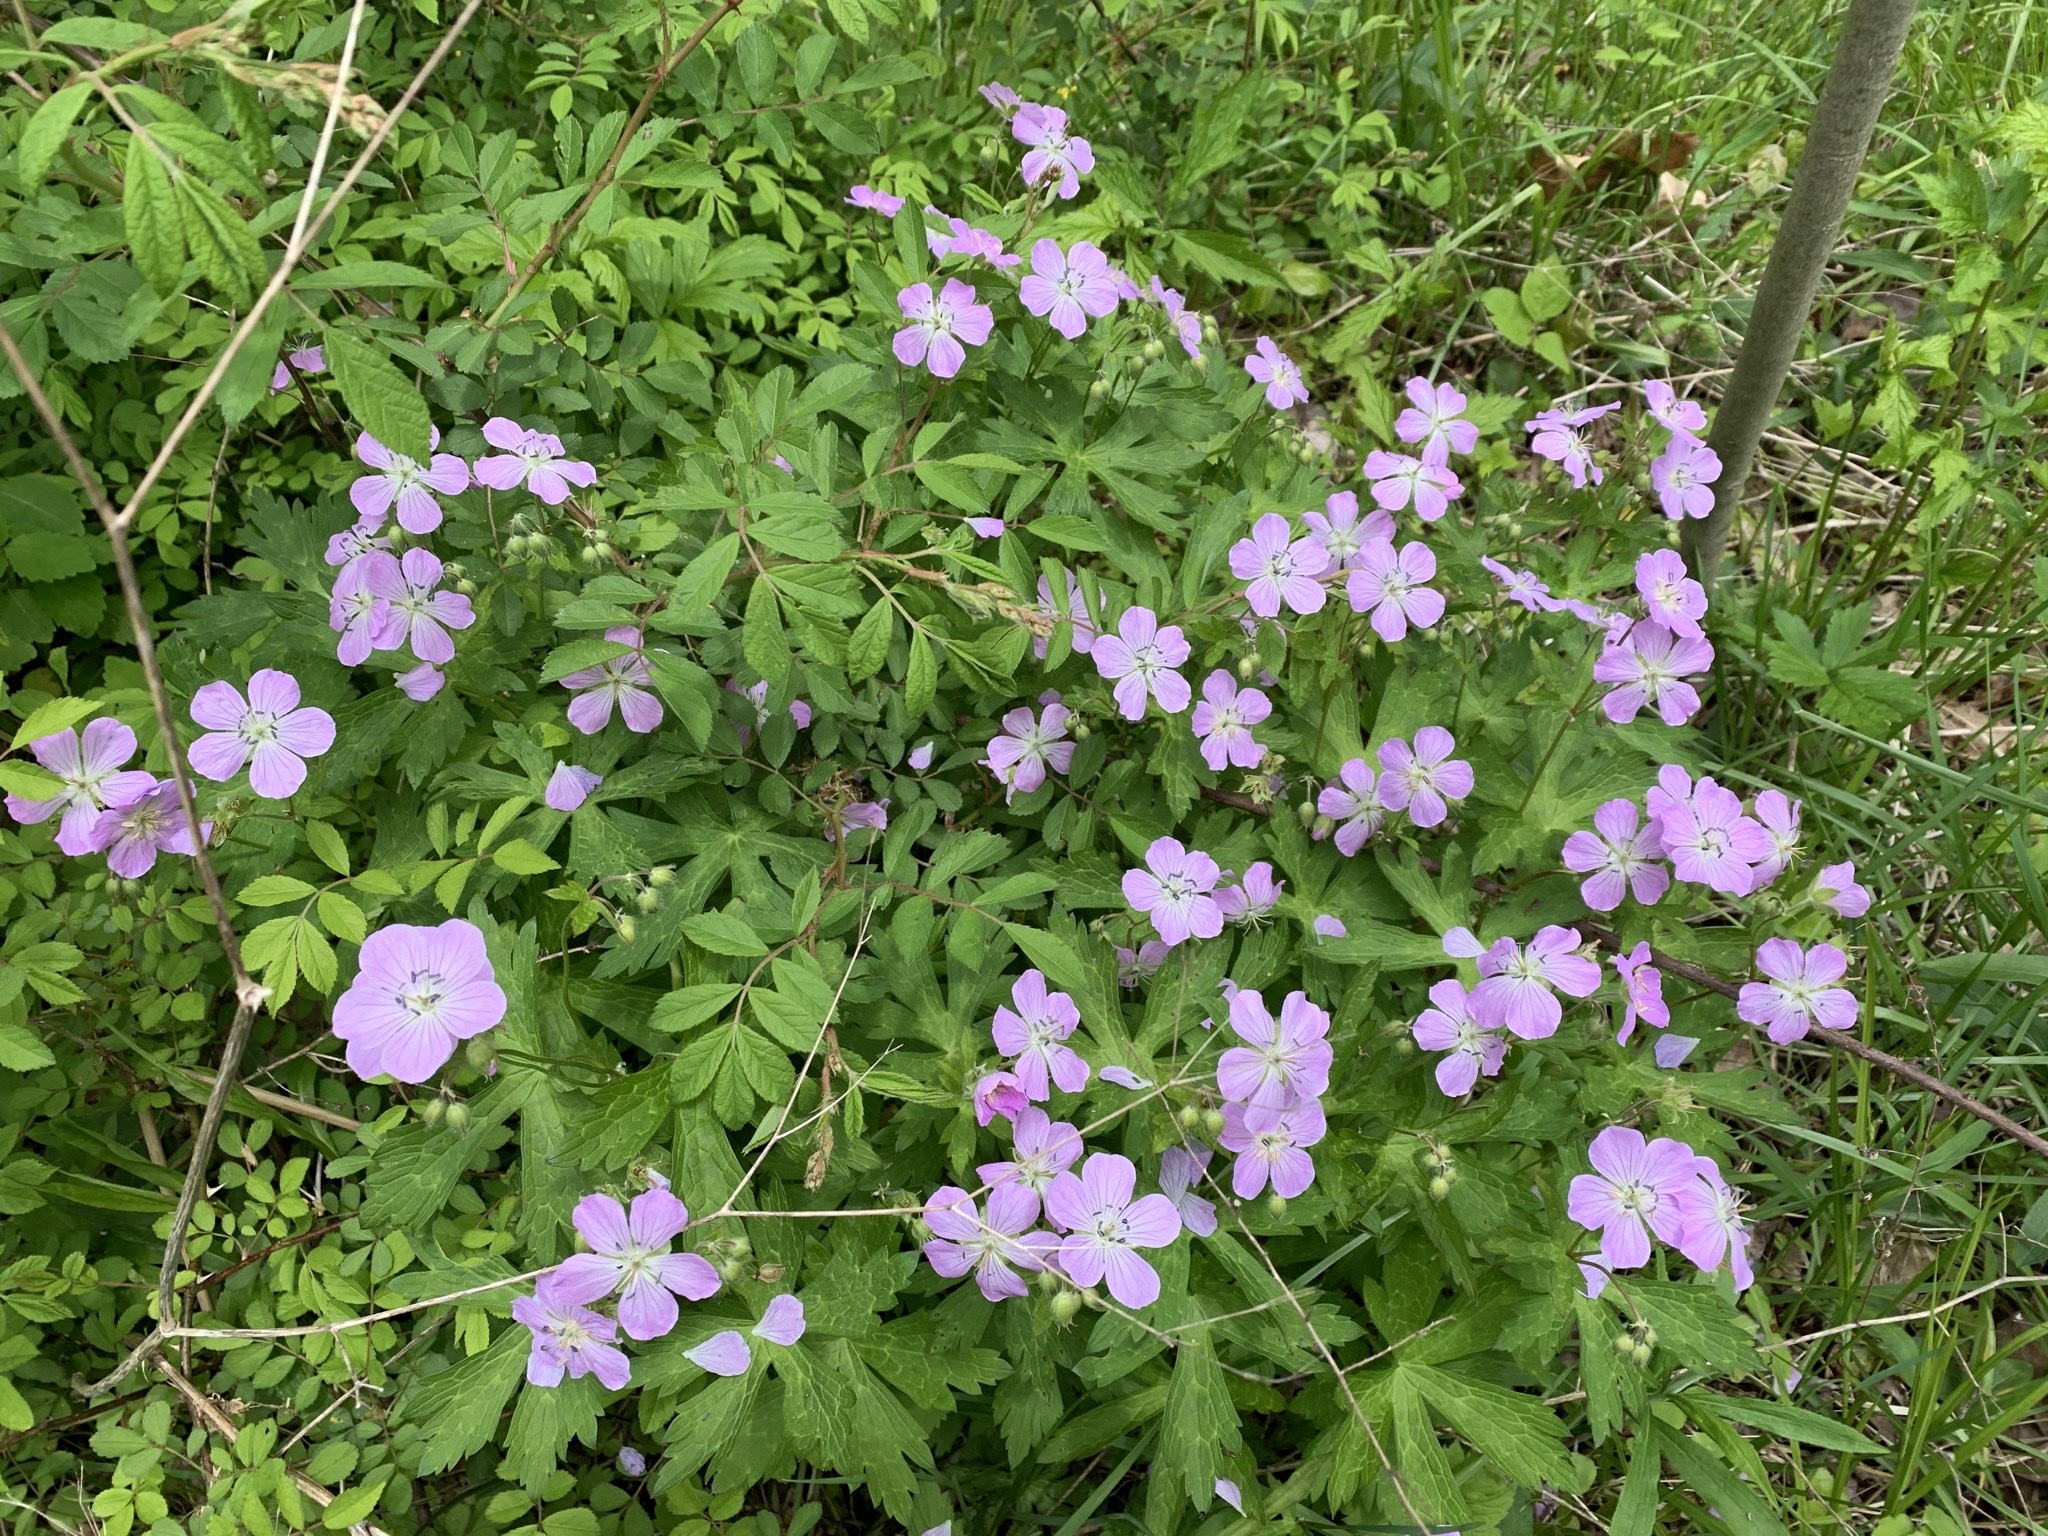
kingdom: Plantae
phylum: Tracheophyta
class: Magnoliopsida
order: Geraniales
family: Geraniaceae
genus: Geranium
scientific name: Geranium maculatum
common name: Spotted geranium
